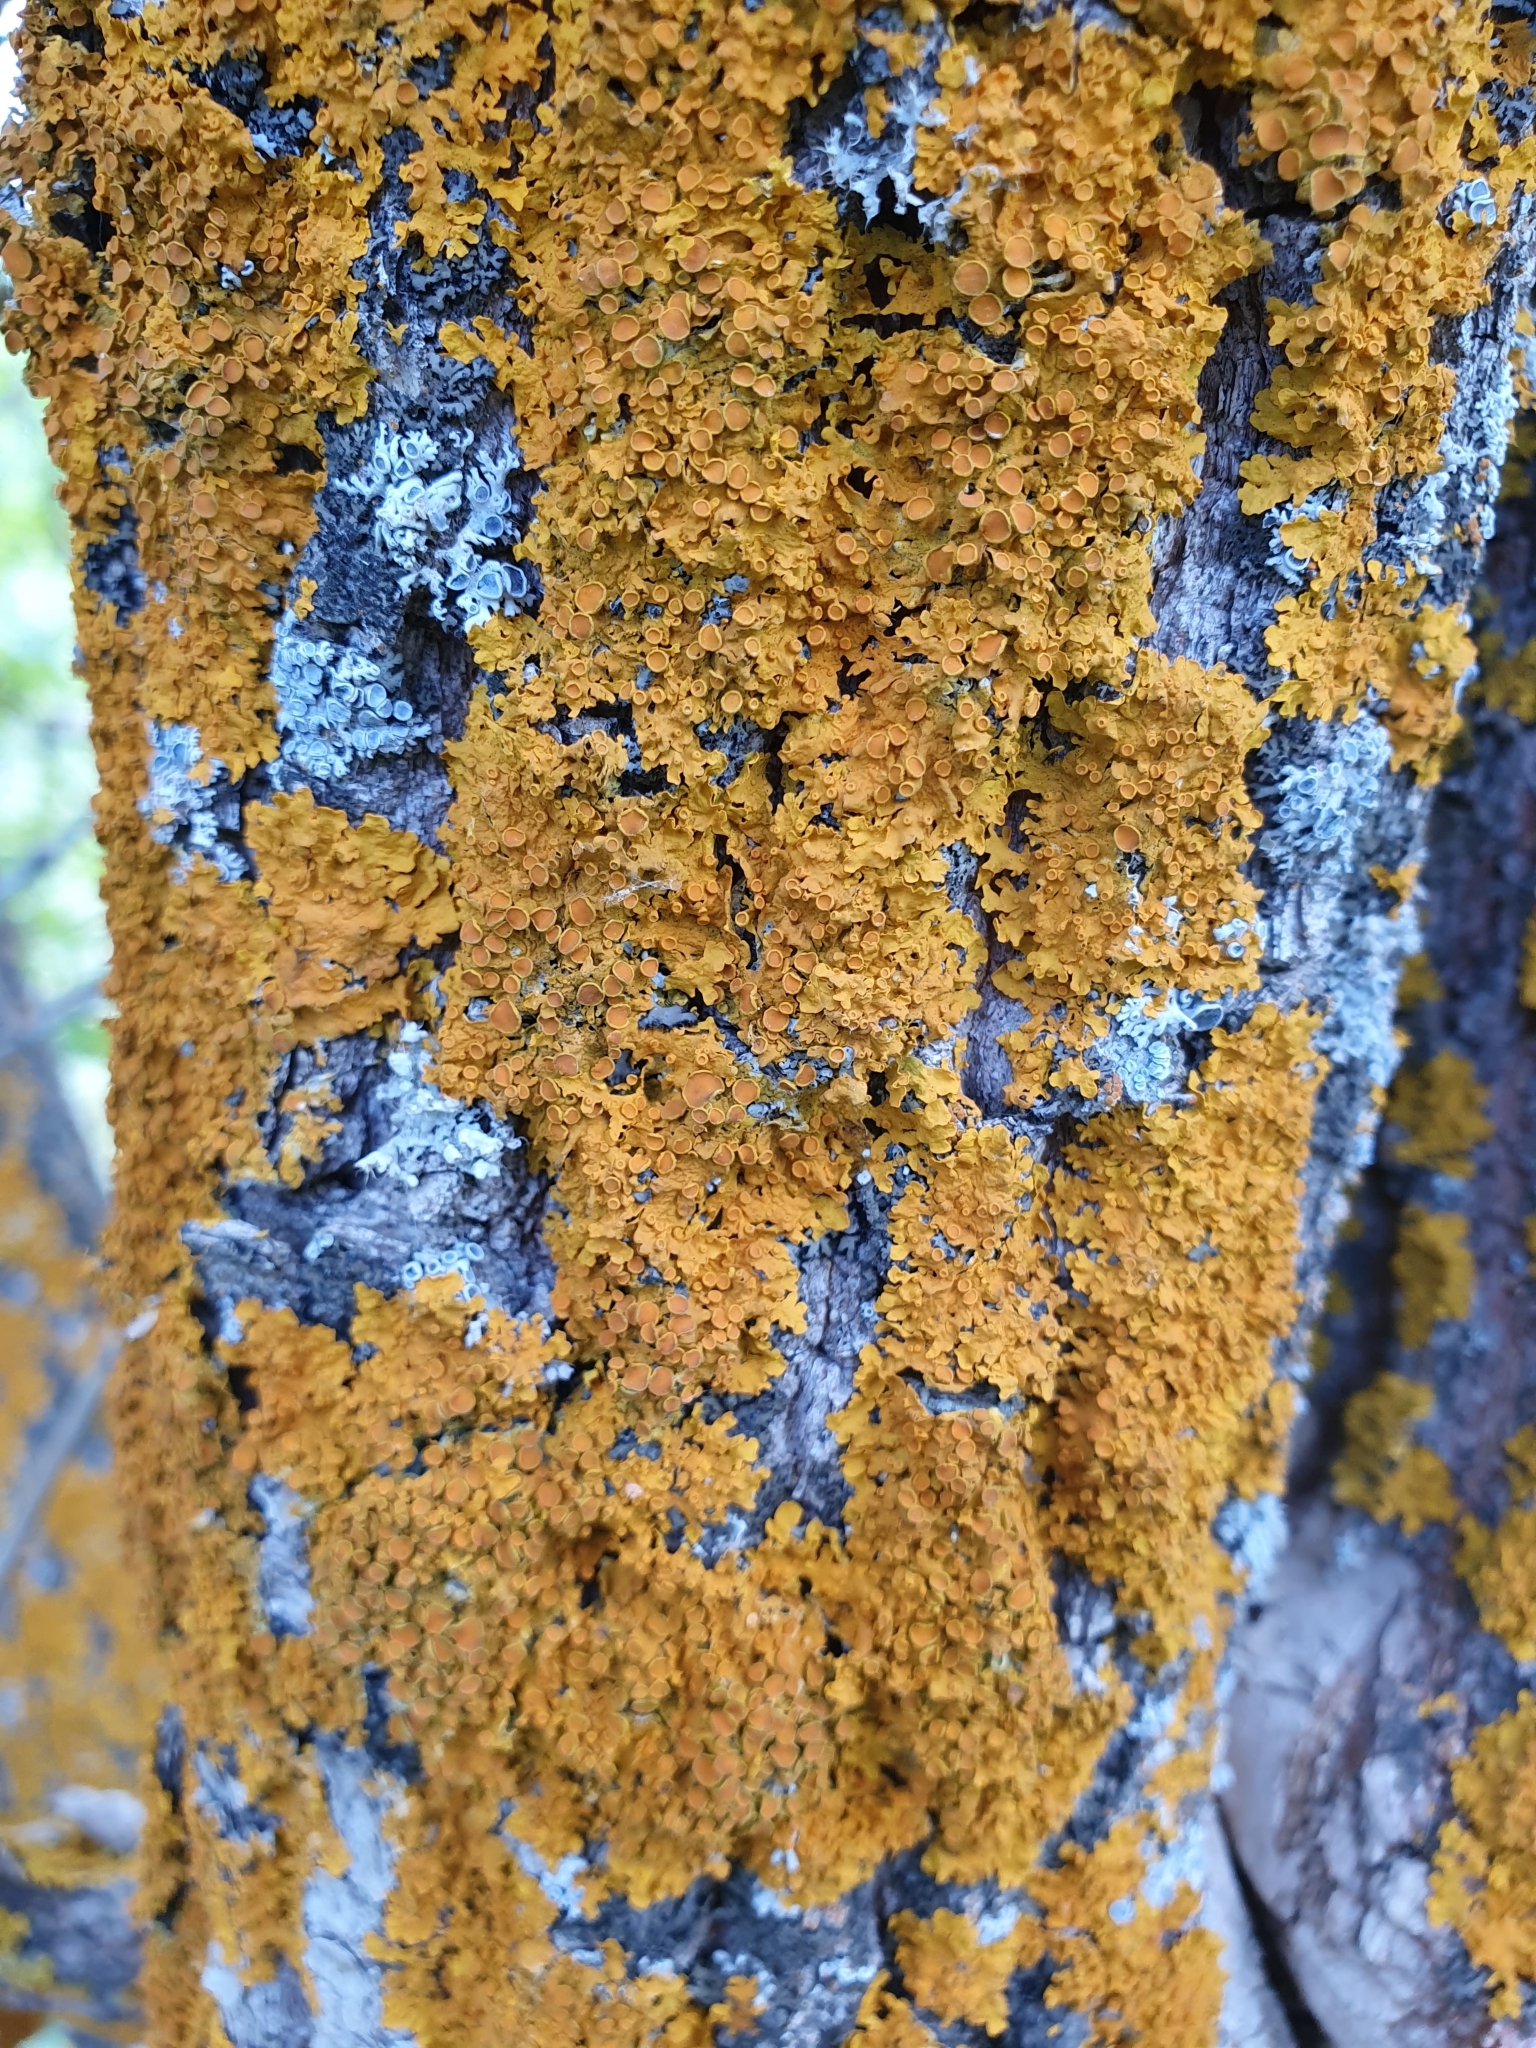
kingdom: Fungi
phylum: Ascomycota
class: Lecanoromycetes
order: Teloschistales
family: Teloschistaceae
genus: Xanthoria
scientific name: Xanthoria parietina
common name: Common orange lichen
